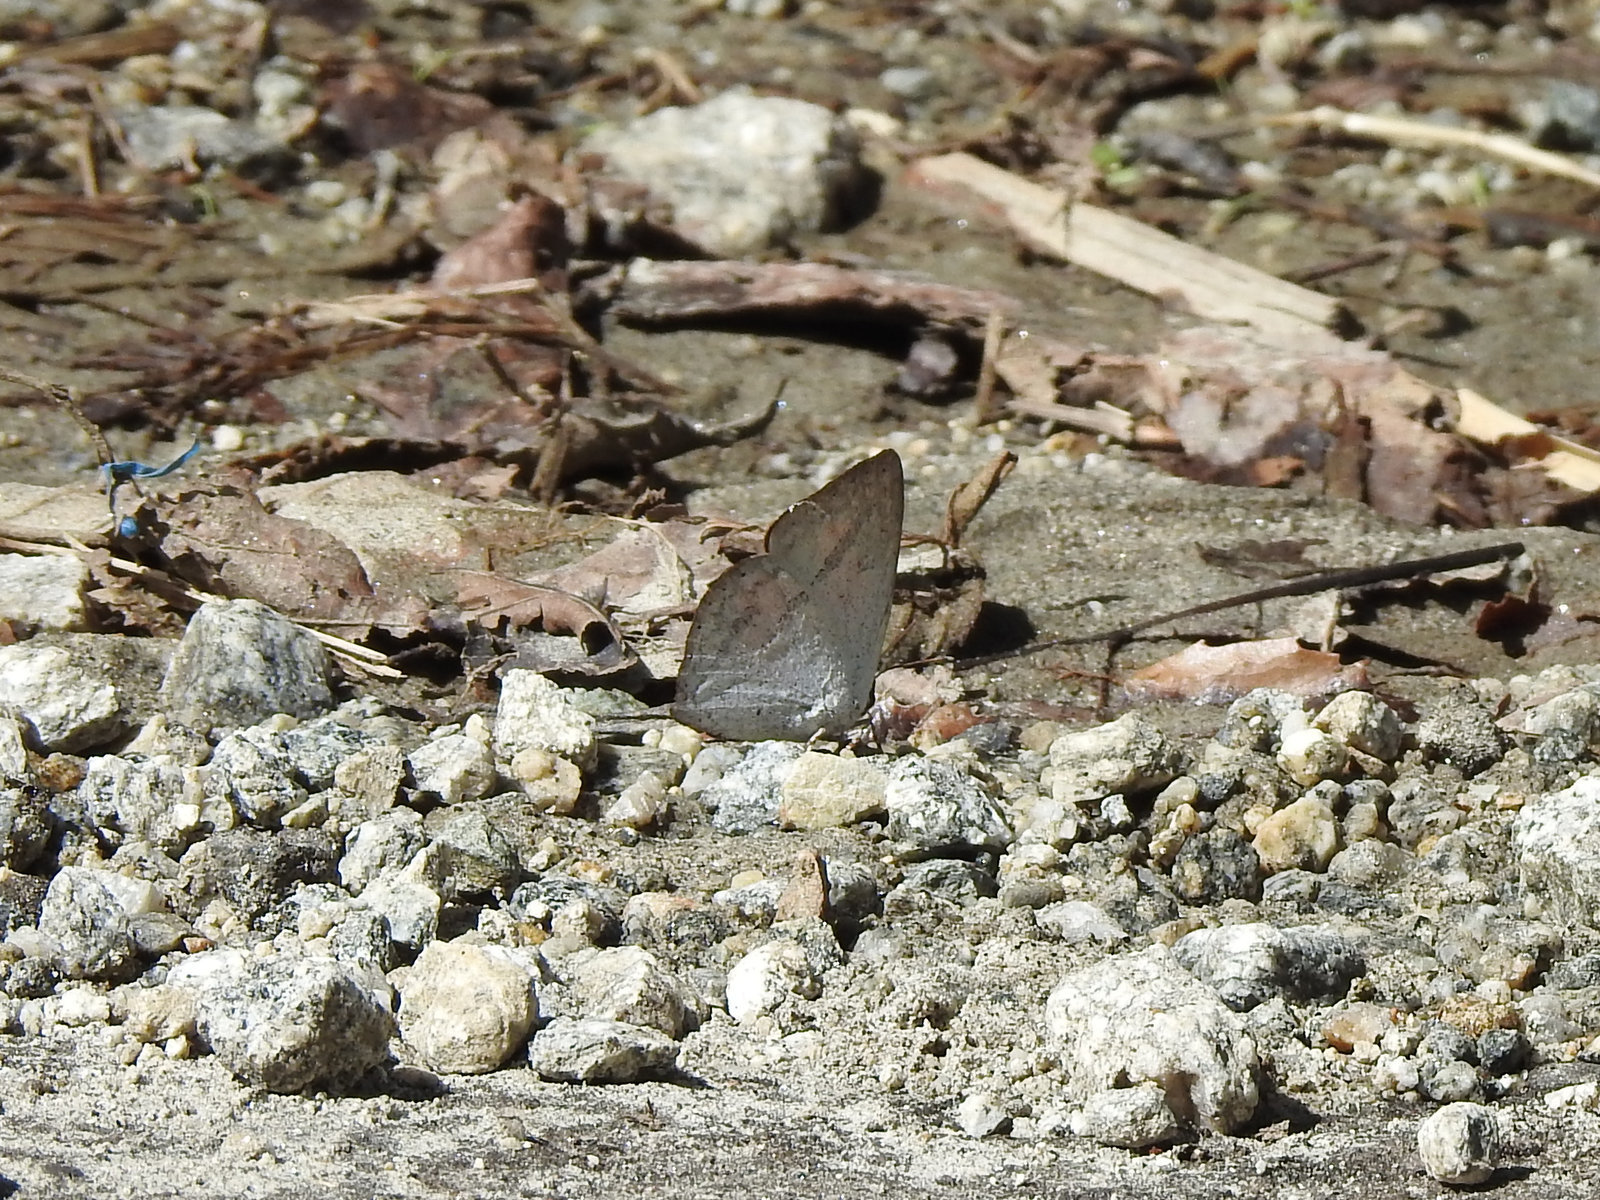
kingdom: Animalia
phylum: Arthropoda
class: Insecta
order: Lepidoptera
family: Lycaenidae
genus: Curetis
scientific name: Curetis acuta
